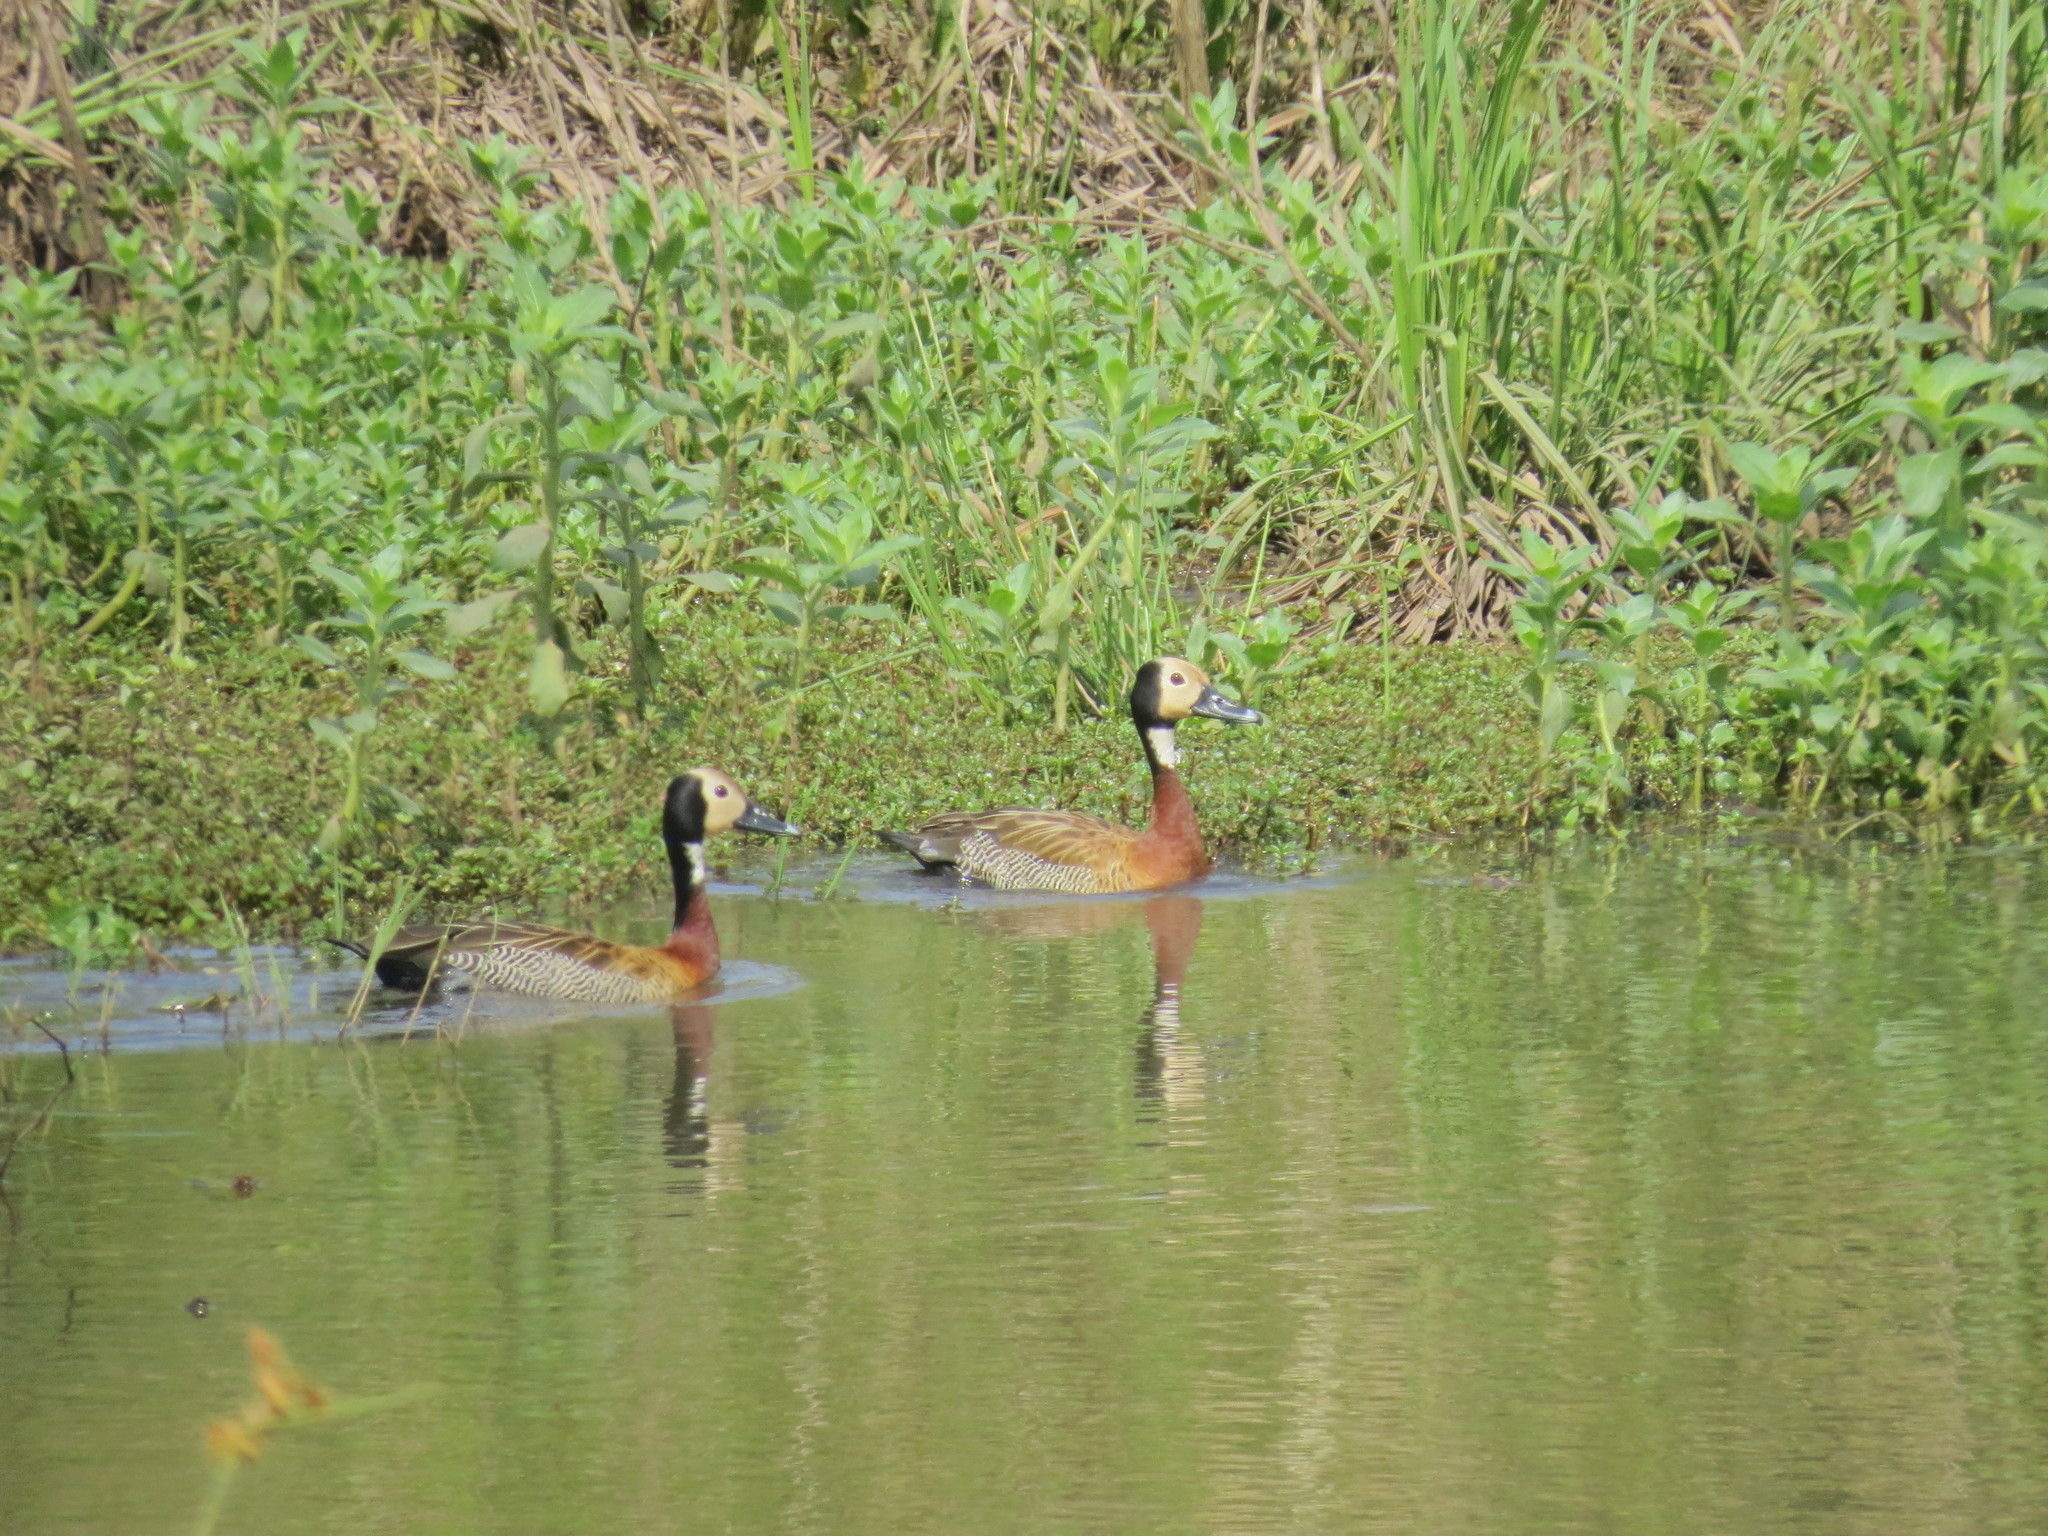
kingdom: Animalia
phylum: Chordata
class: Aves
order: Anseriformes
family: Anatidae
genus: Dendrocygna
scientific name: Dendrocygna viduata
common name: White-faced whistling duck
